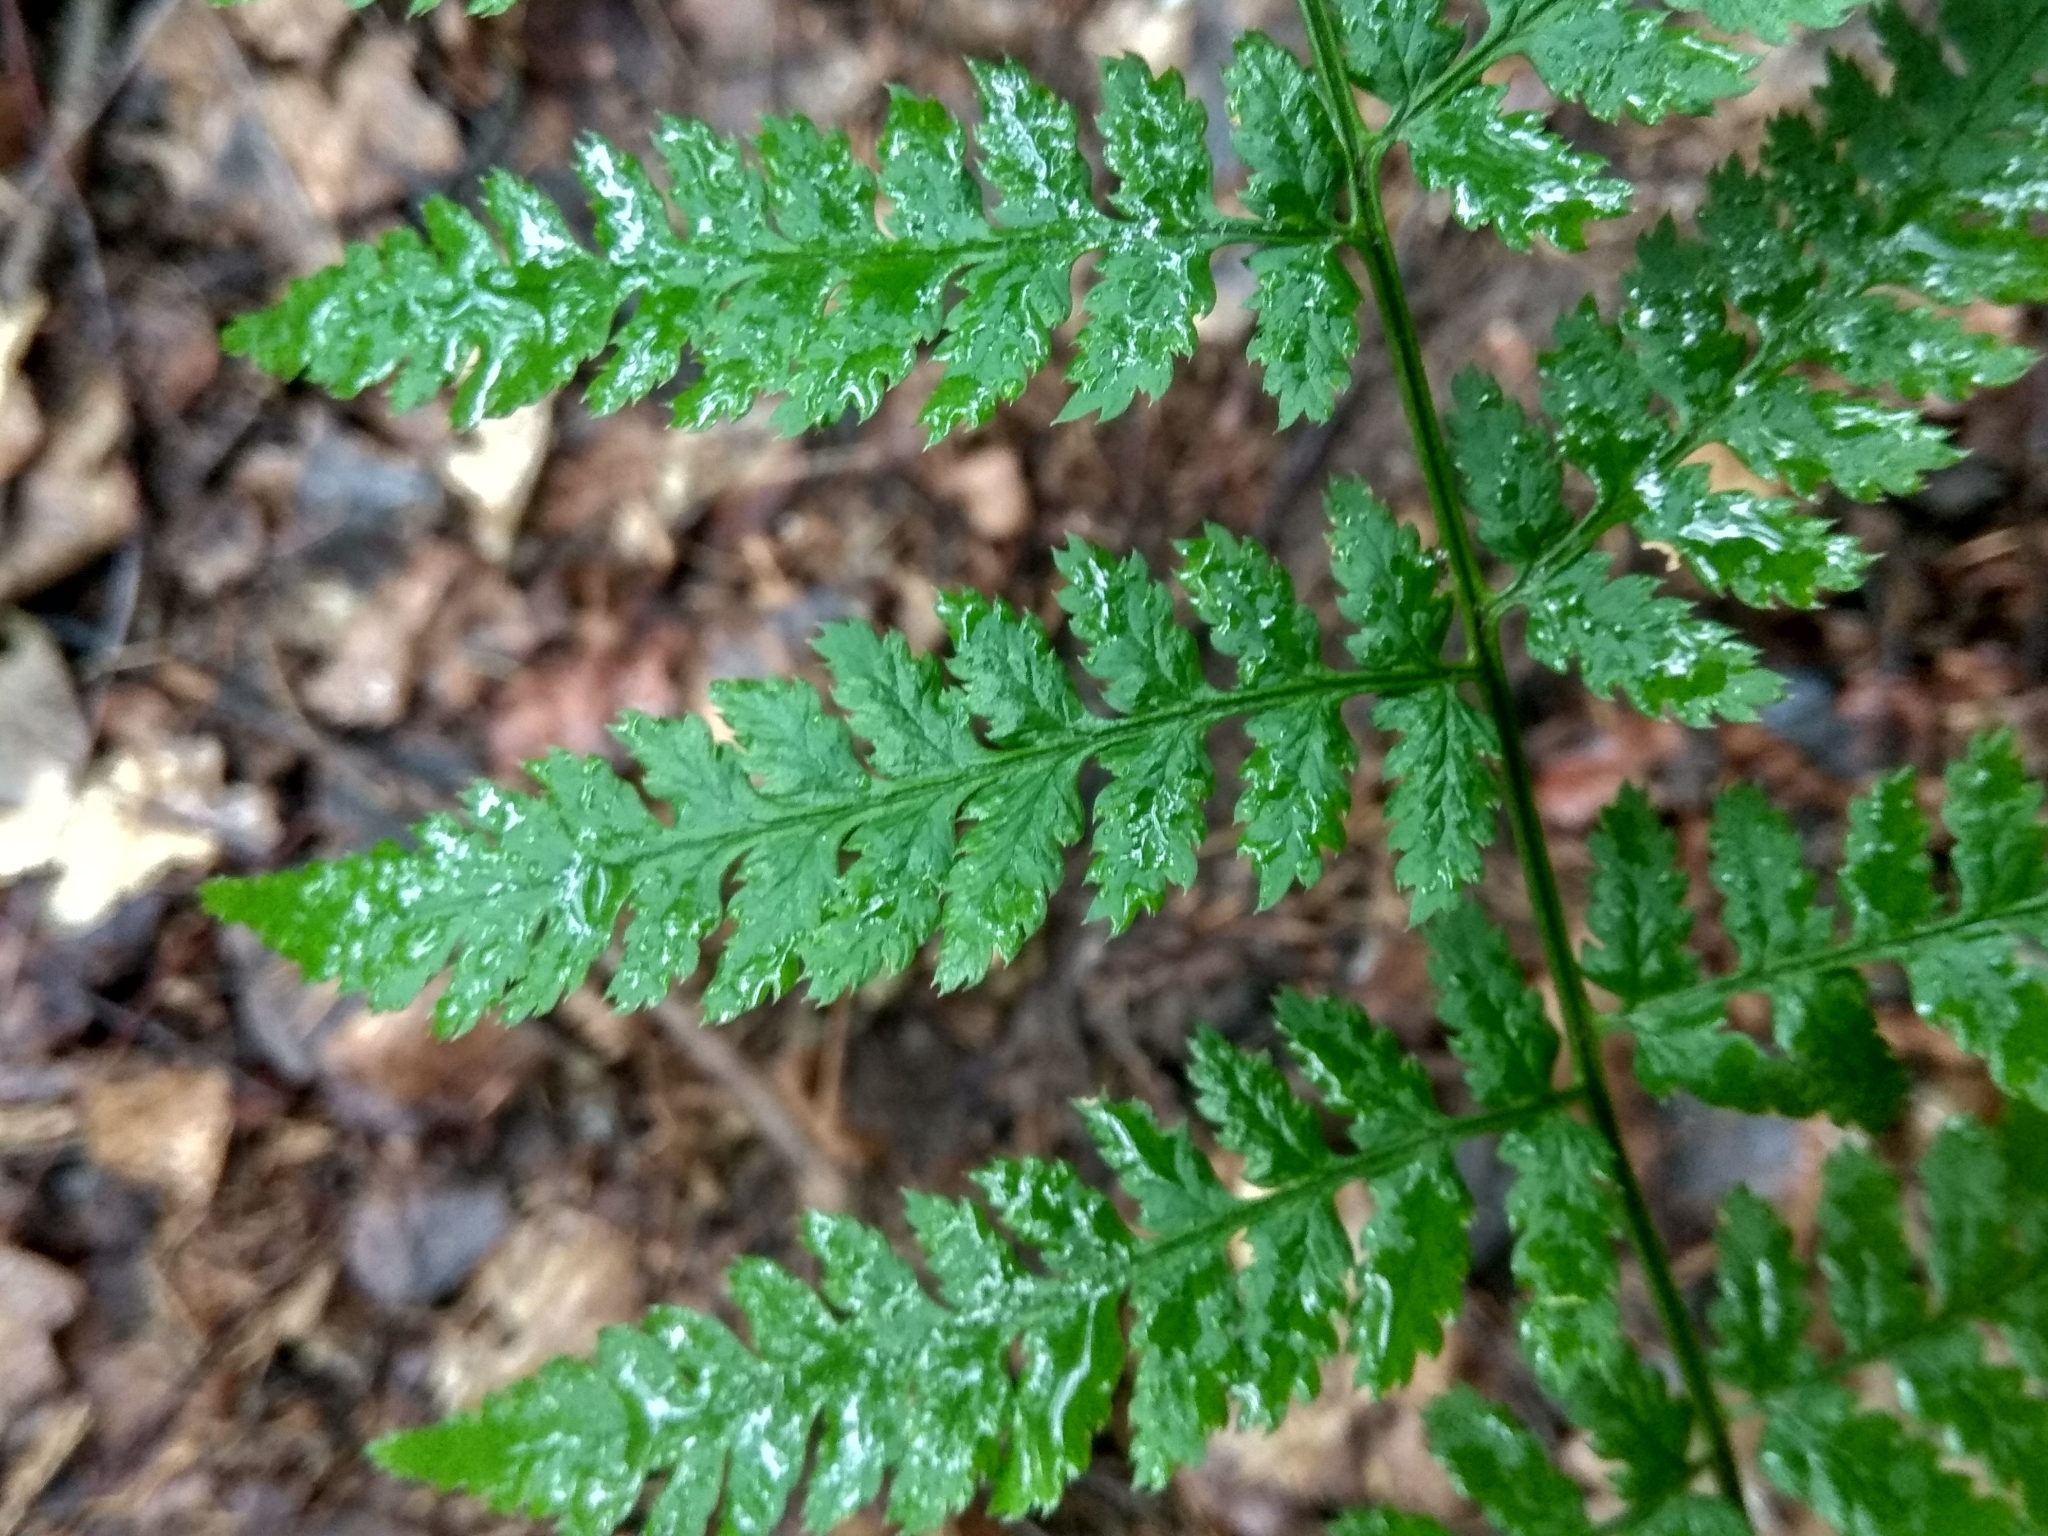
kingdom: Plantae
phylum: Tracheophyta
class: Polypodiopsida
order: Polypodiales
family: Athyriaceae
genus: Athyrium
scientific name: Athyrium filix-femina
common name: Lady fern
